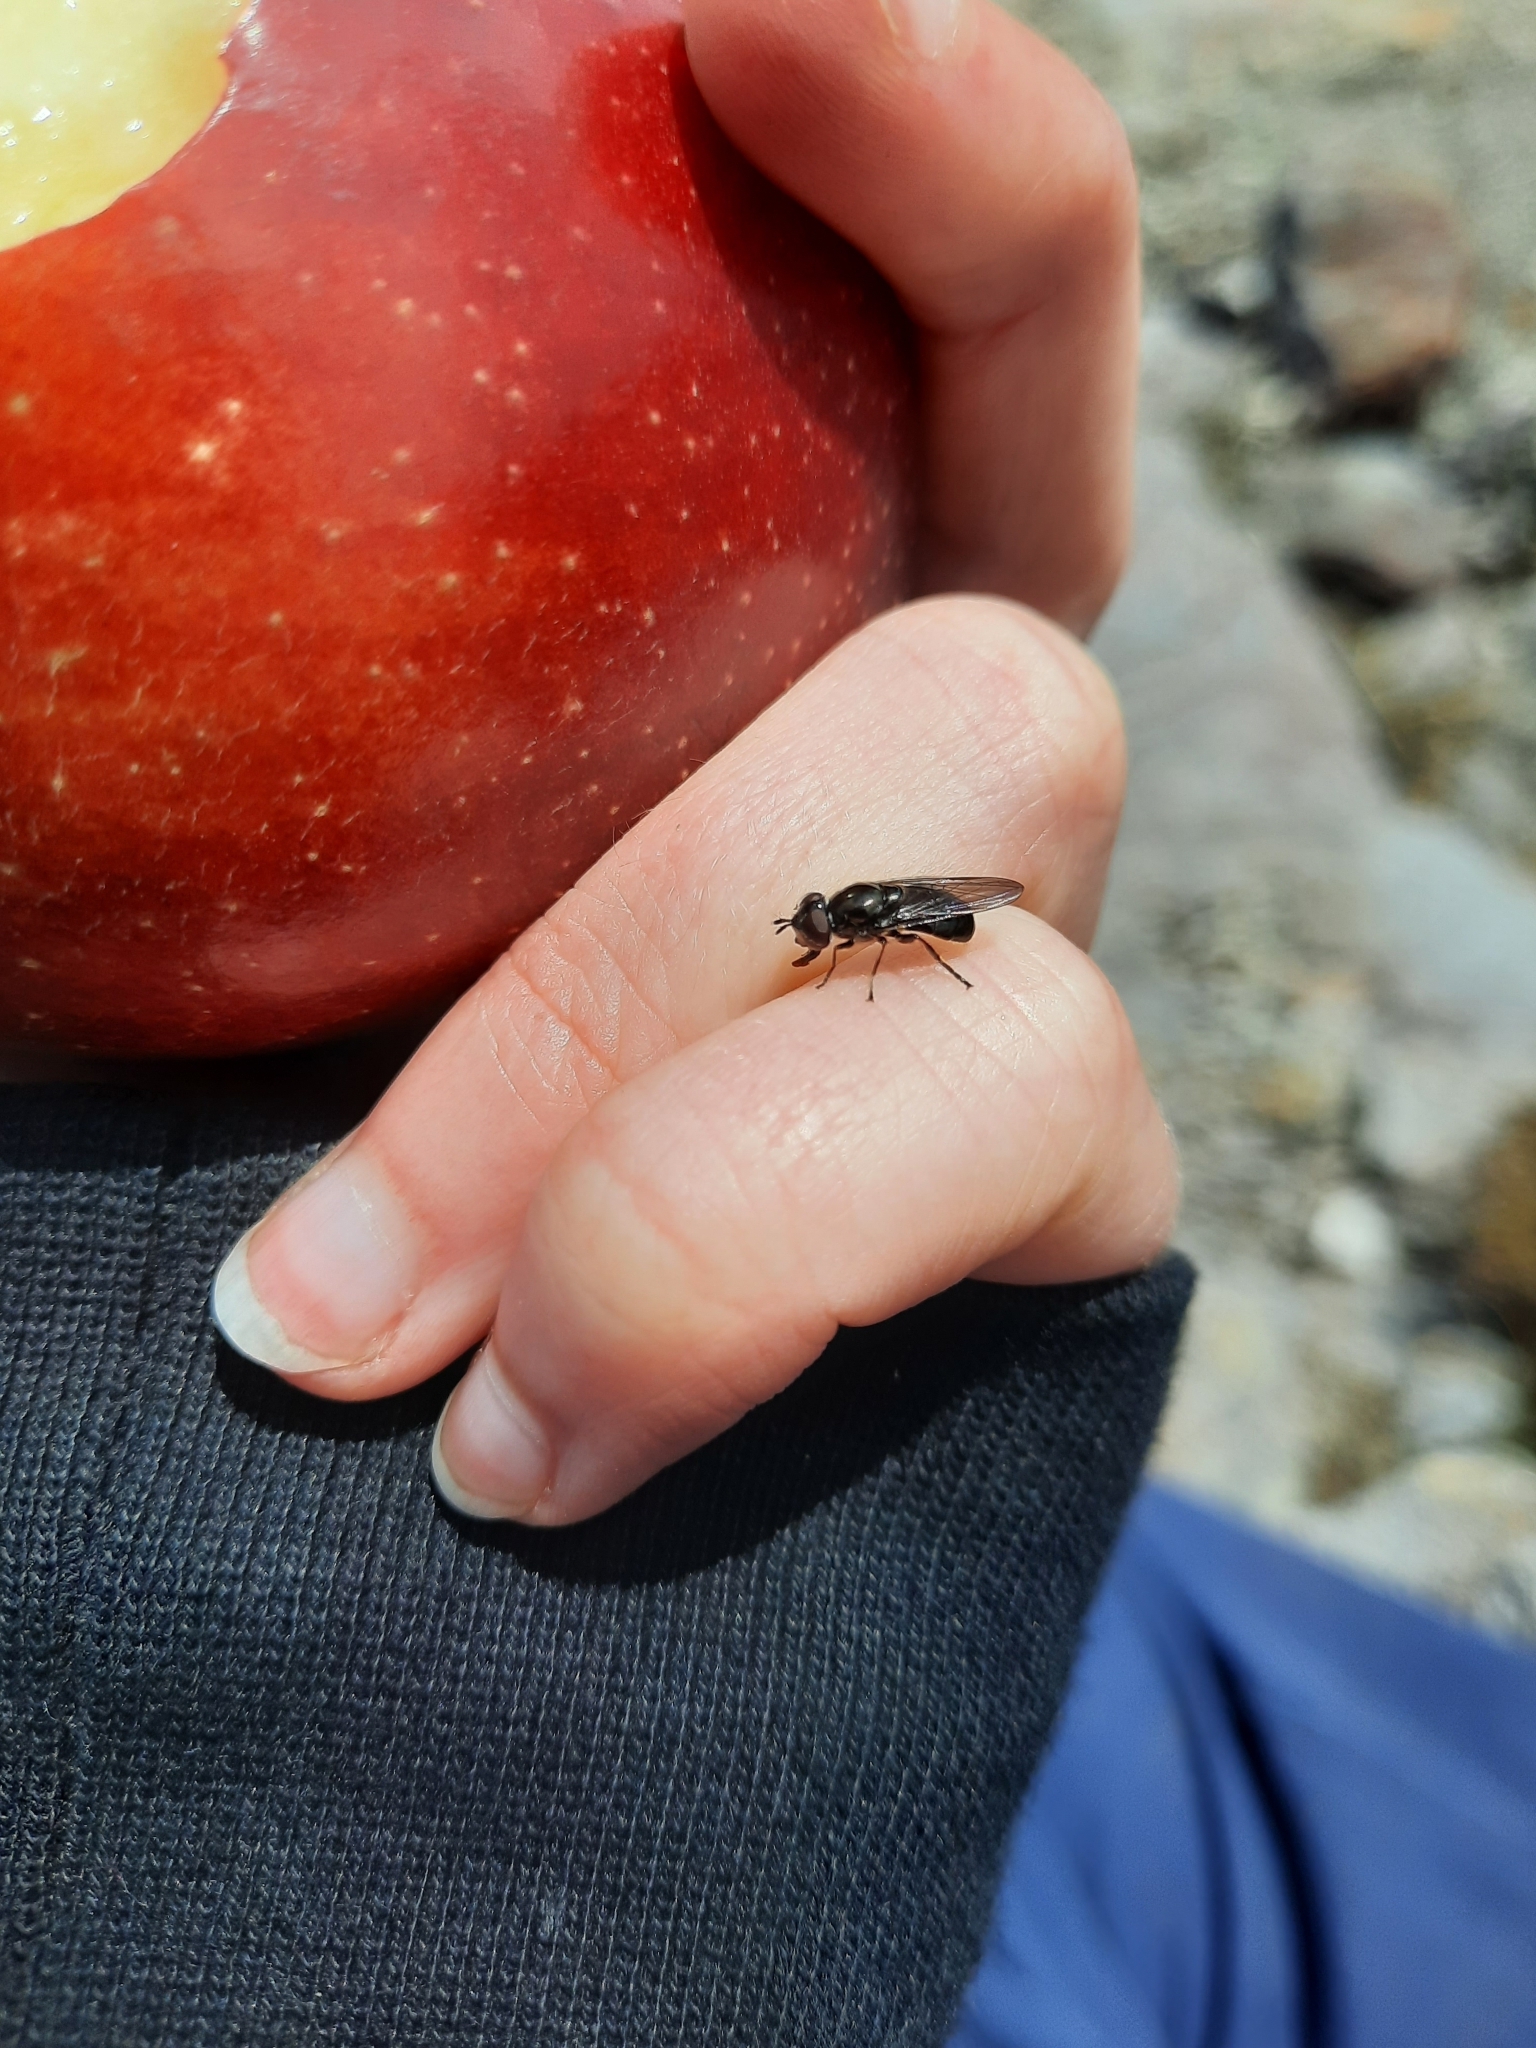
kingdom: Animalia
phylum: Arthropoda
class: Insecta
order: Diptera
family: Syrphidae
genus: Psilota
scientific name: Psilota decessum
